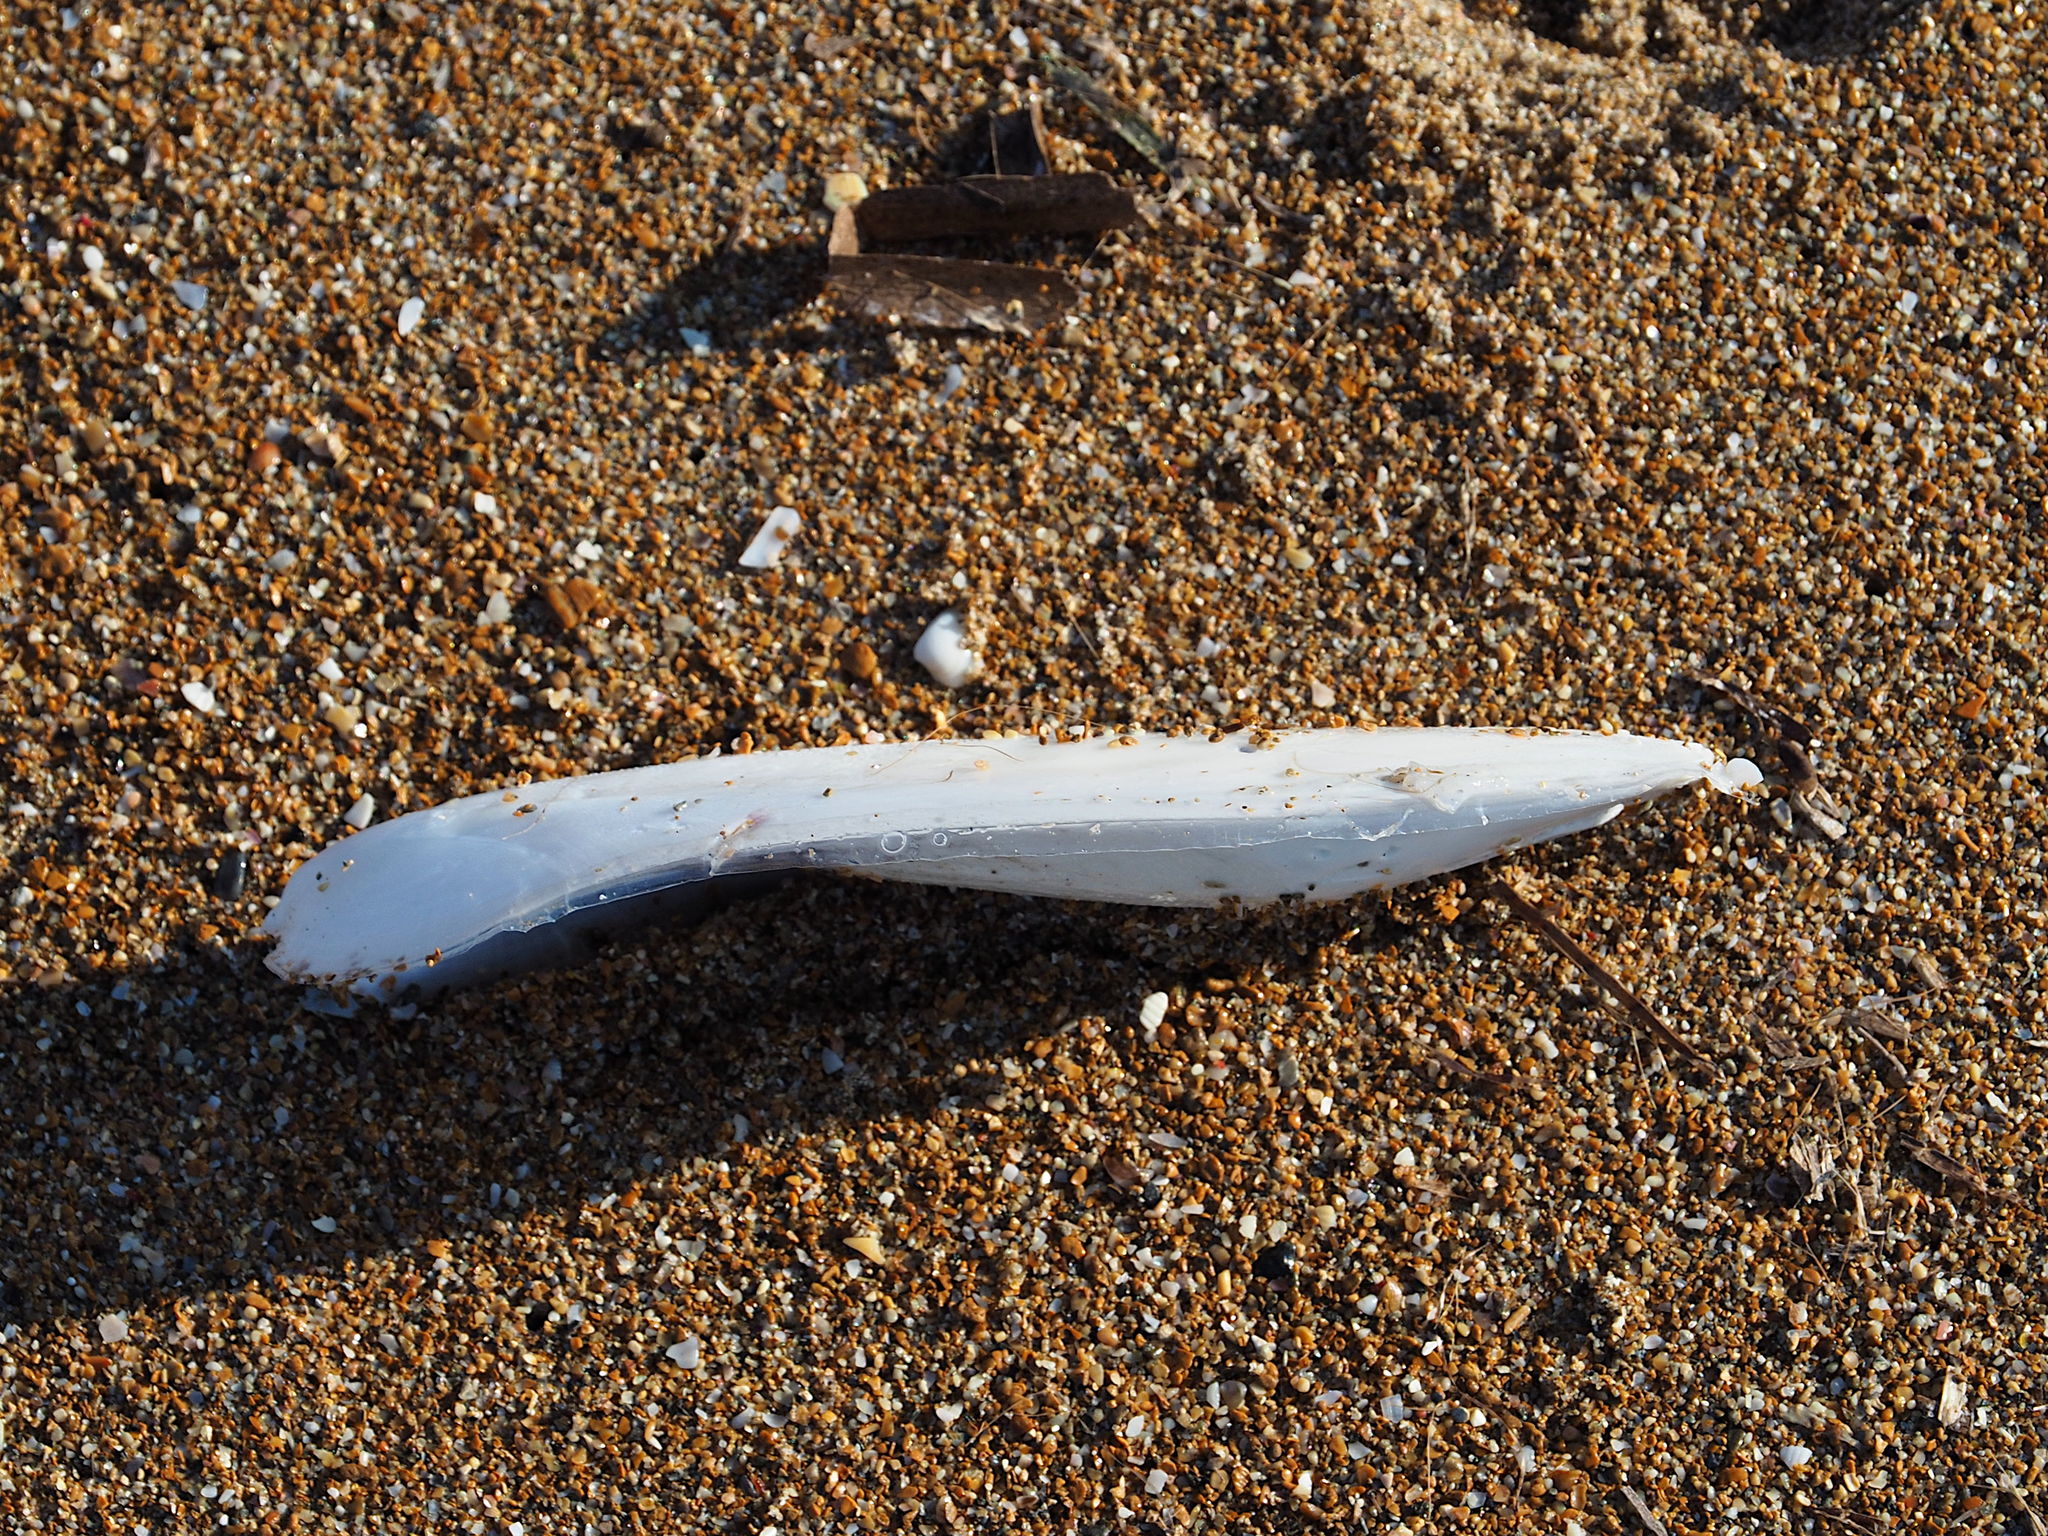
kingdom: Animalia
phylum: Mollusca
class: Cephalopoda
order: Sepiida
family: Sepiidae
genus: Sepia
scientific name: Sepia officinalis
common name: Common cuttlefish
